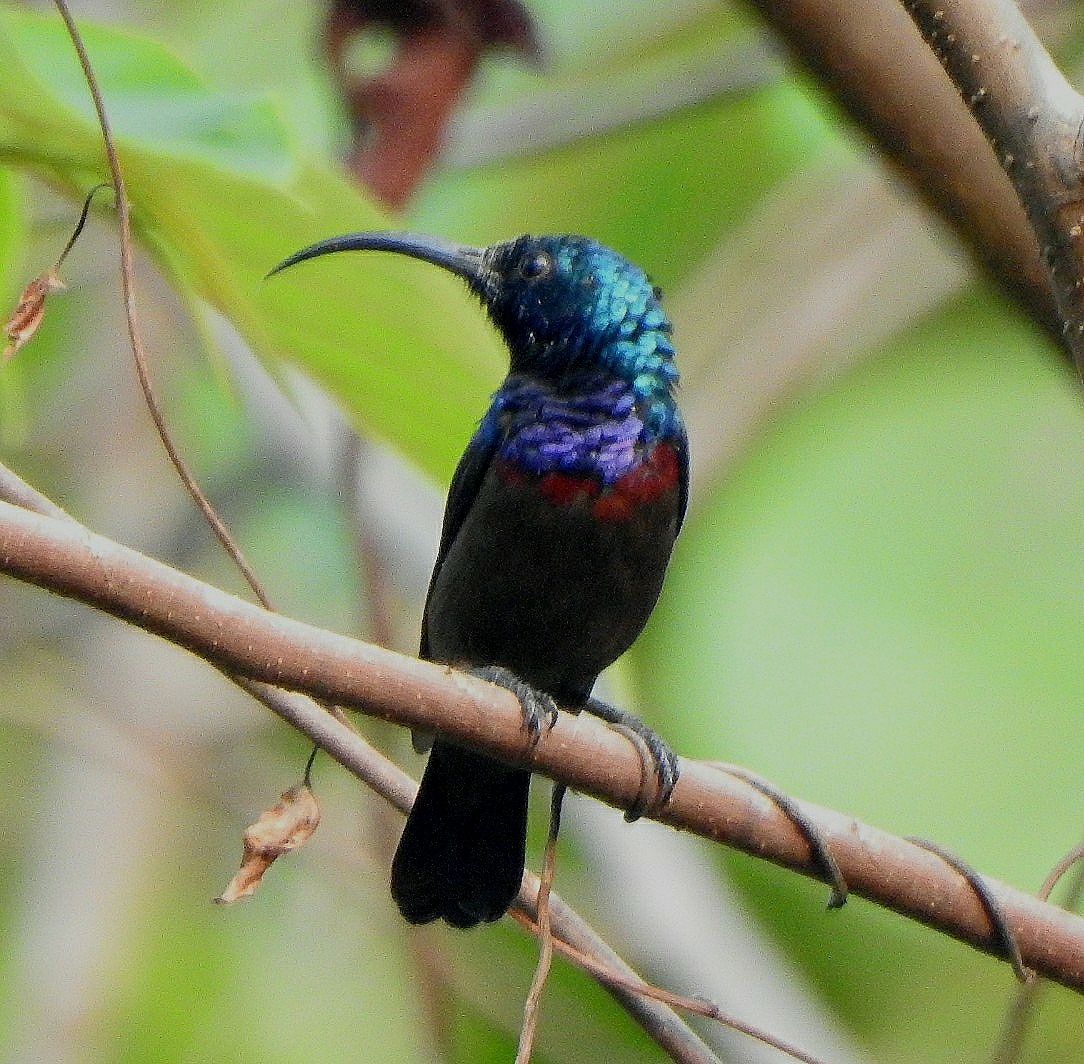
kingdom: Animalia
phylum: Chordata
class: Aves
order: Passeriformes
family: Nectariniidae
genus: Cinnyris
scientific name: Cinnyris lotenius
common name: Loten's sunbird
